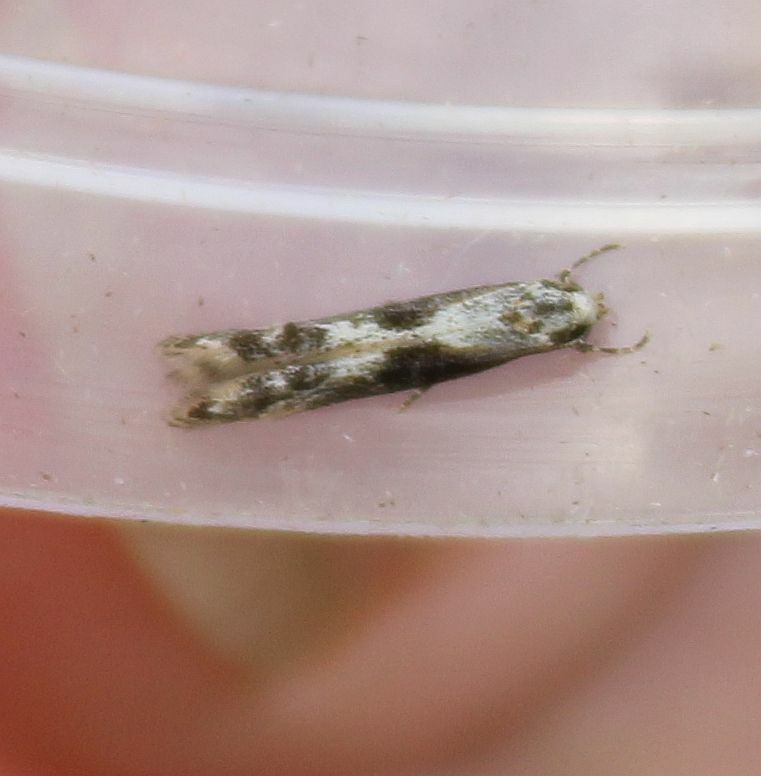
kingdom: Animalia
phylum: Arthropoda
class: Insecta
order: Lepidoptera
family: Elachistidae
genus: Blastodacna
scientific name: Blastodacna hellerella
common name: Hawthorn cosmet
